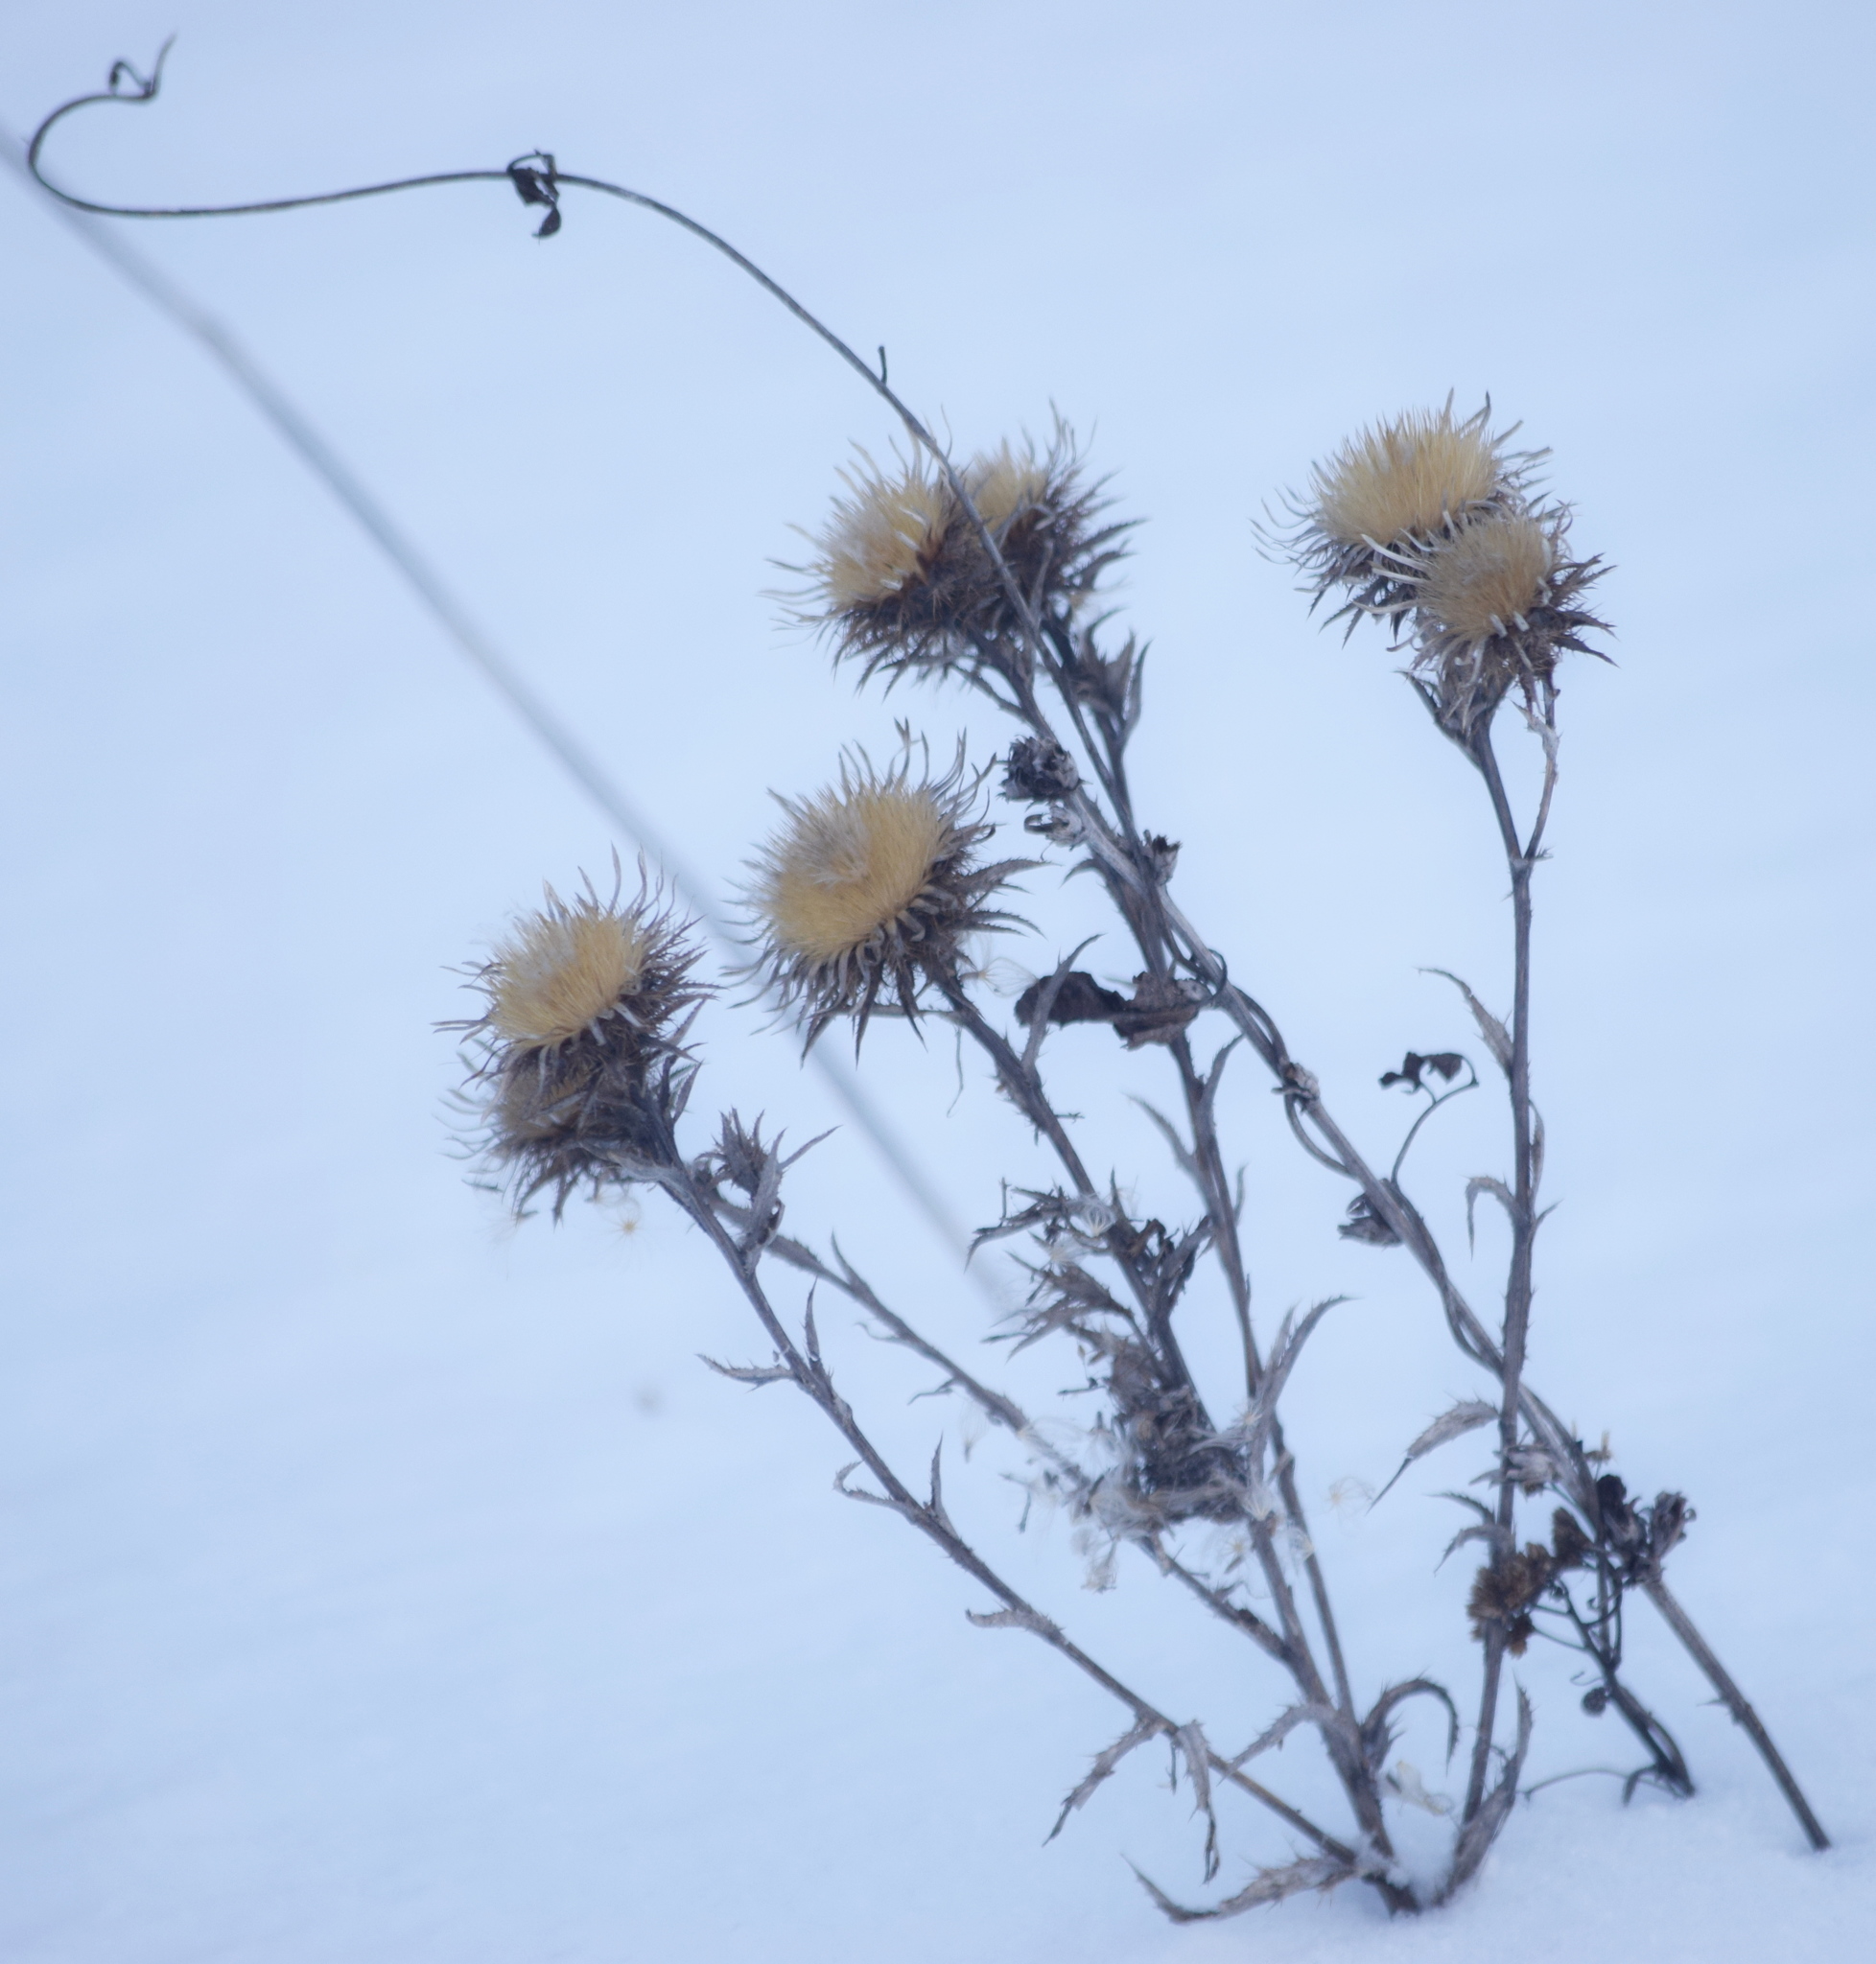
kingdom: Plantae
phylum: Tracheophyta
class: Magnoliopsida
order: Asterales
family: Asteraceae
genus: Carlina
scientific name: Carlina biebersteinii
